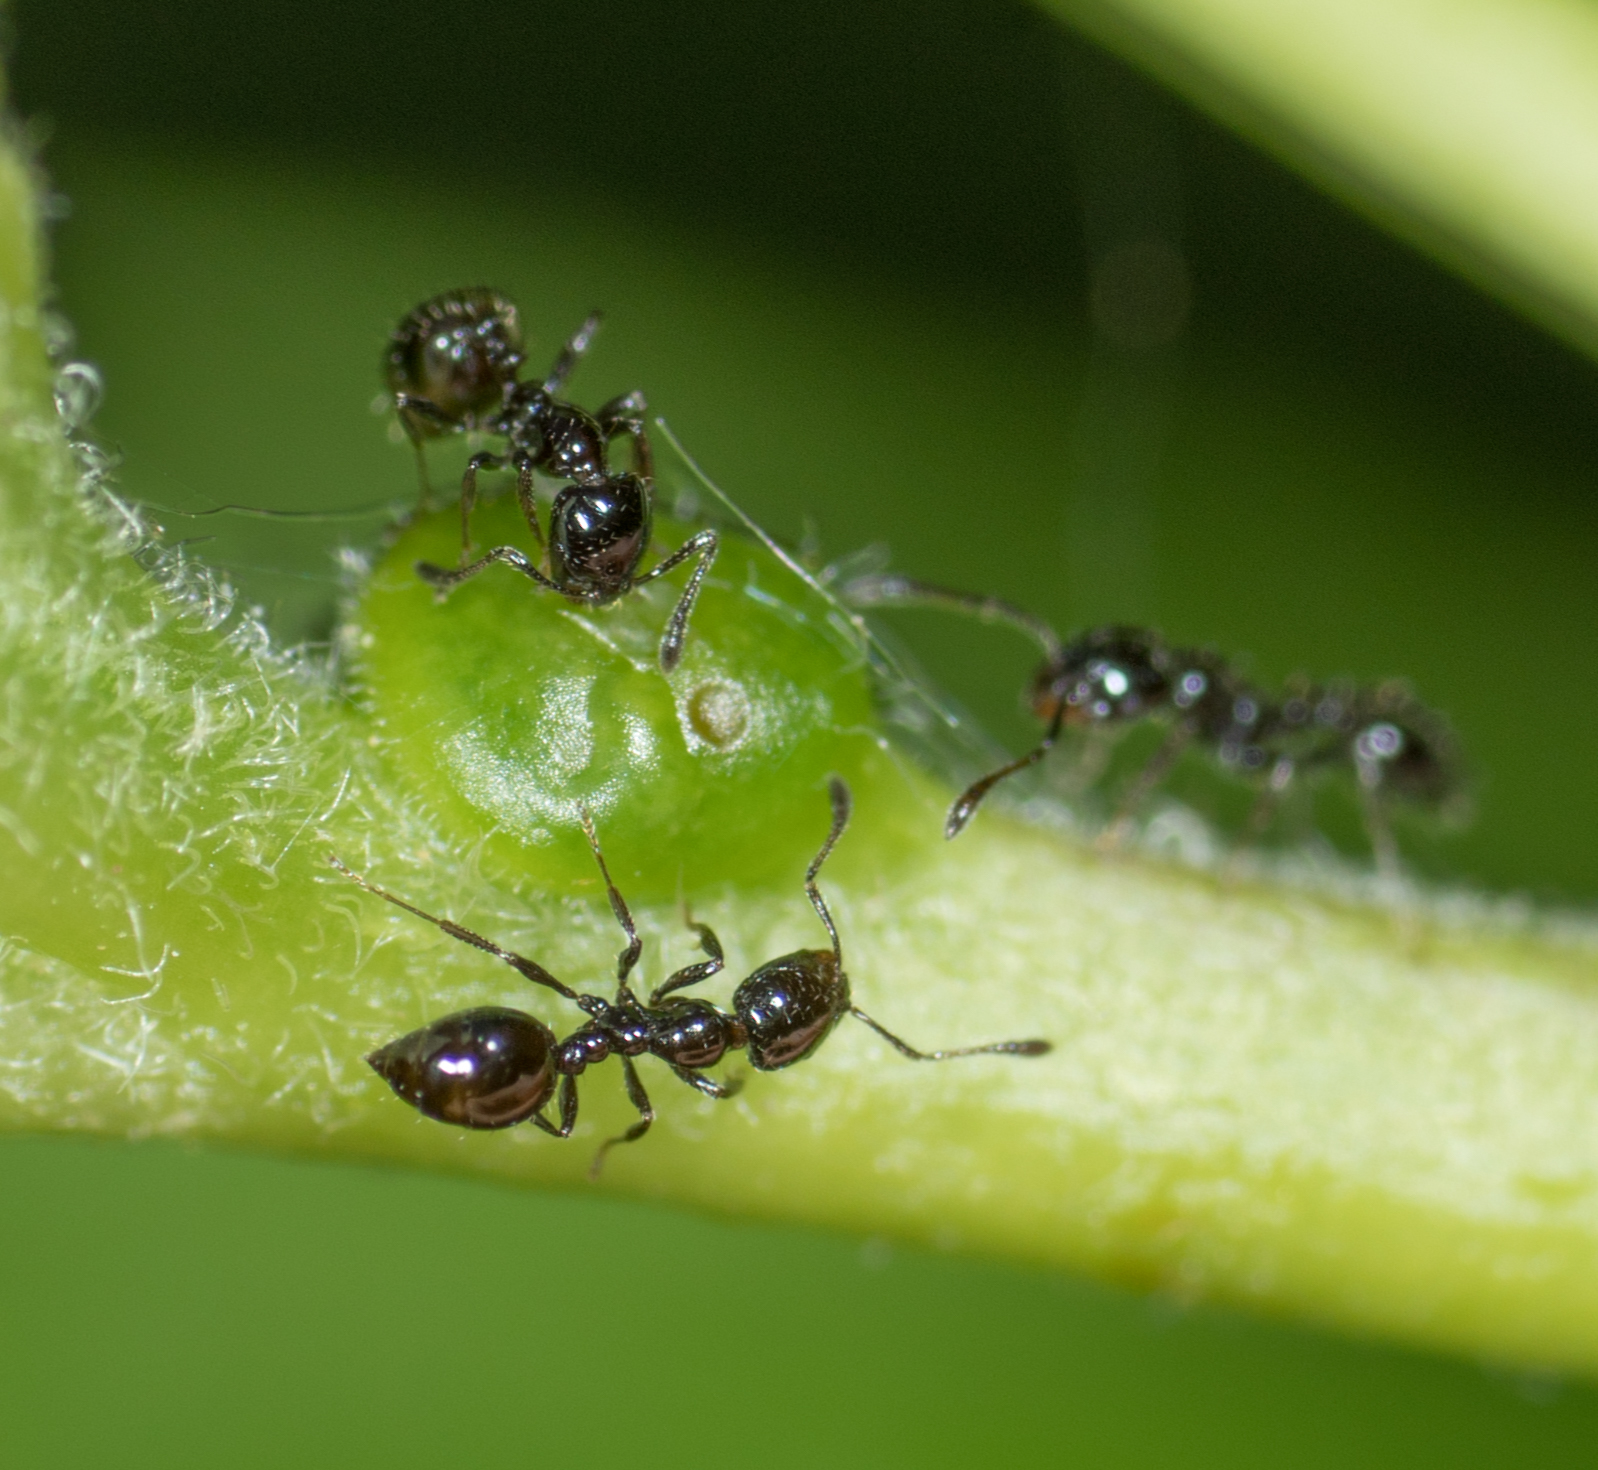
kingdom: Animalia
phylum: Arthropoda
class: Insecta
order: Hymenoptera
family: Formicidae
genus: Monomorium
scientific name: Monomorium minimum
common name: Little black ant
